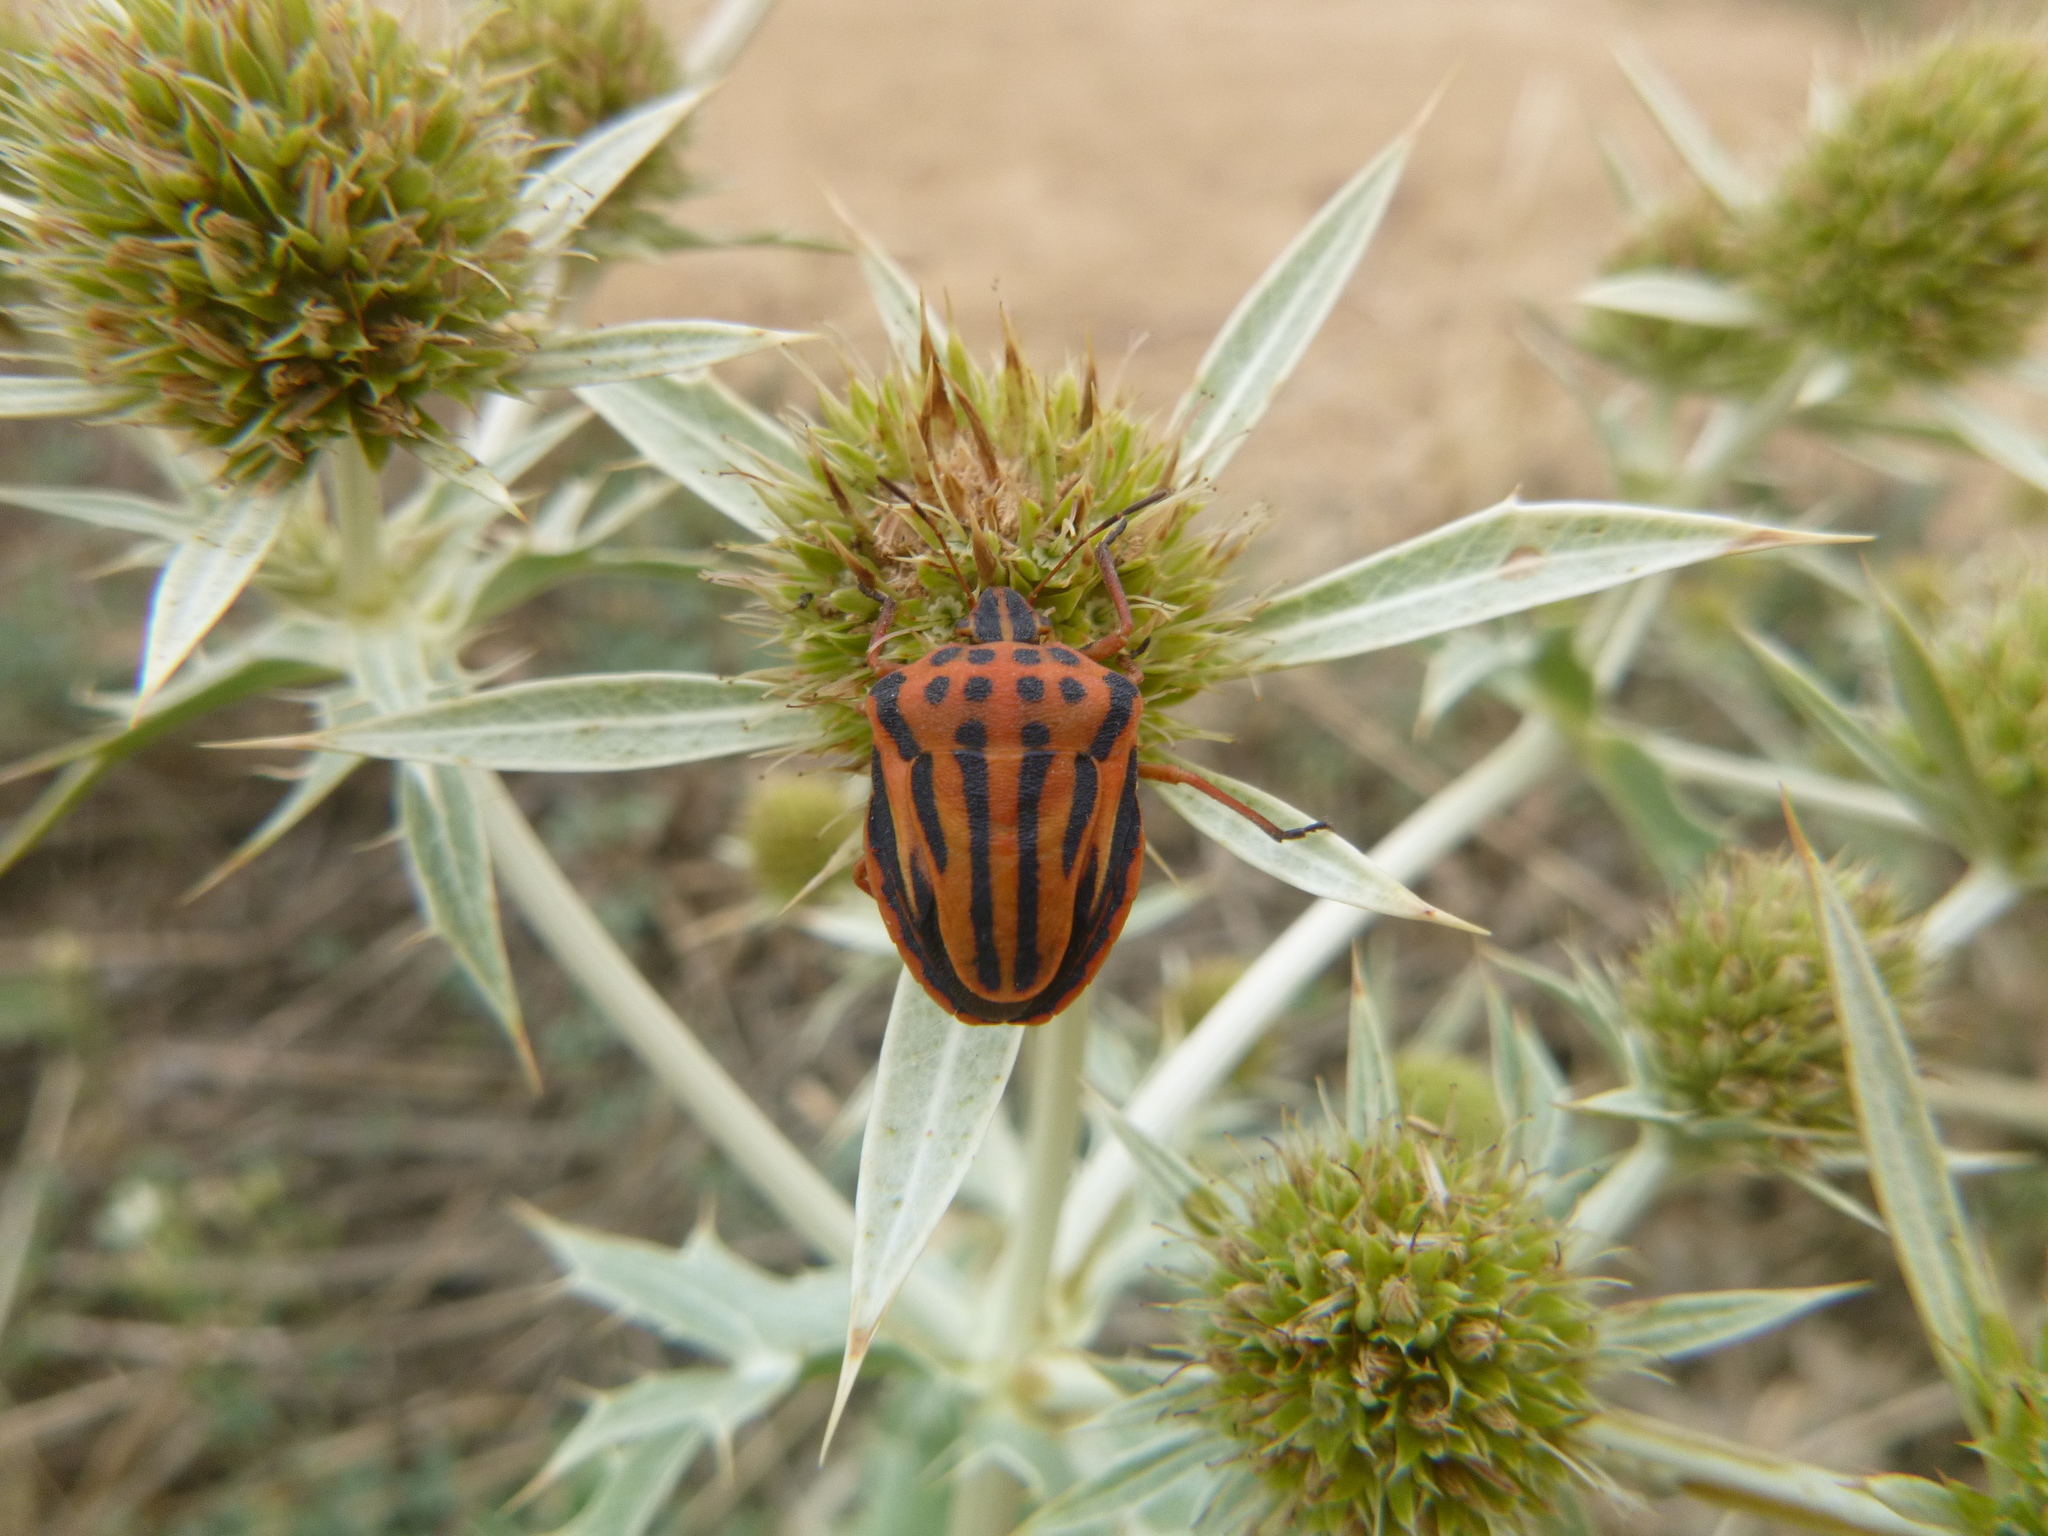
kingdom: Animalia
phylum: Arthropoda
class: Insecta
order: Hemiptera
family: Pentatomidae
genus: Graphosoma
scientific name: Graphosoma semipunctatum
